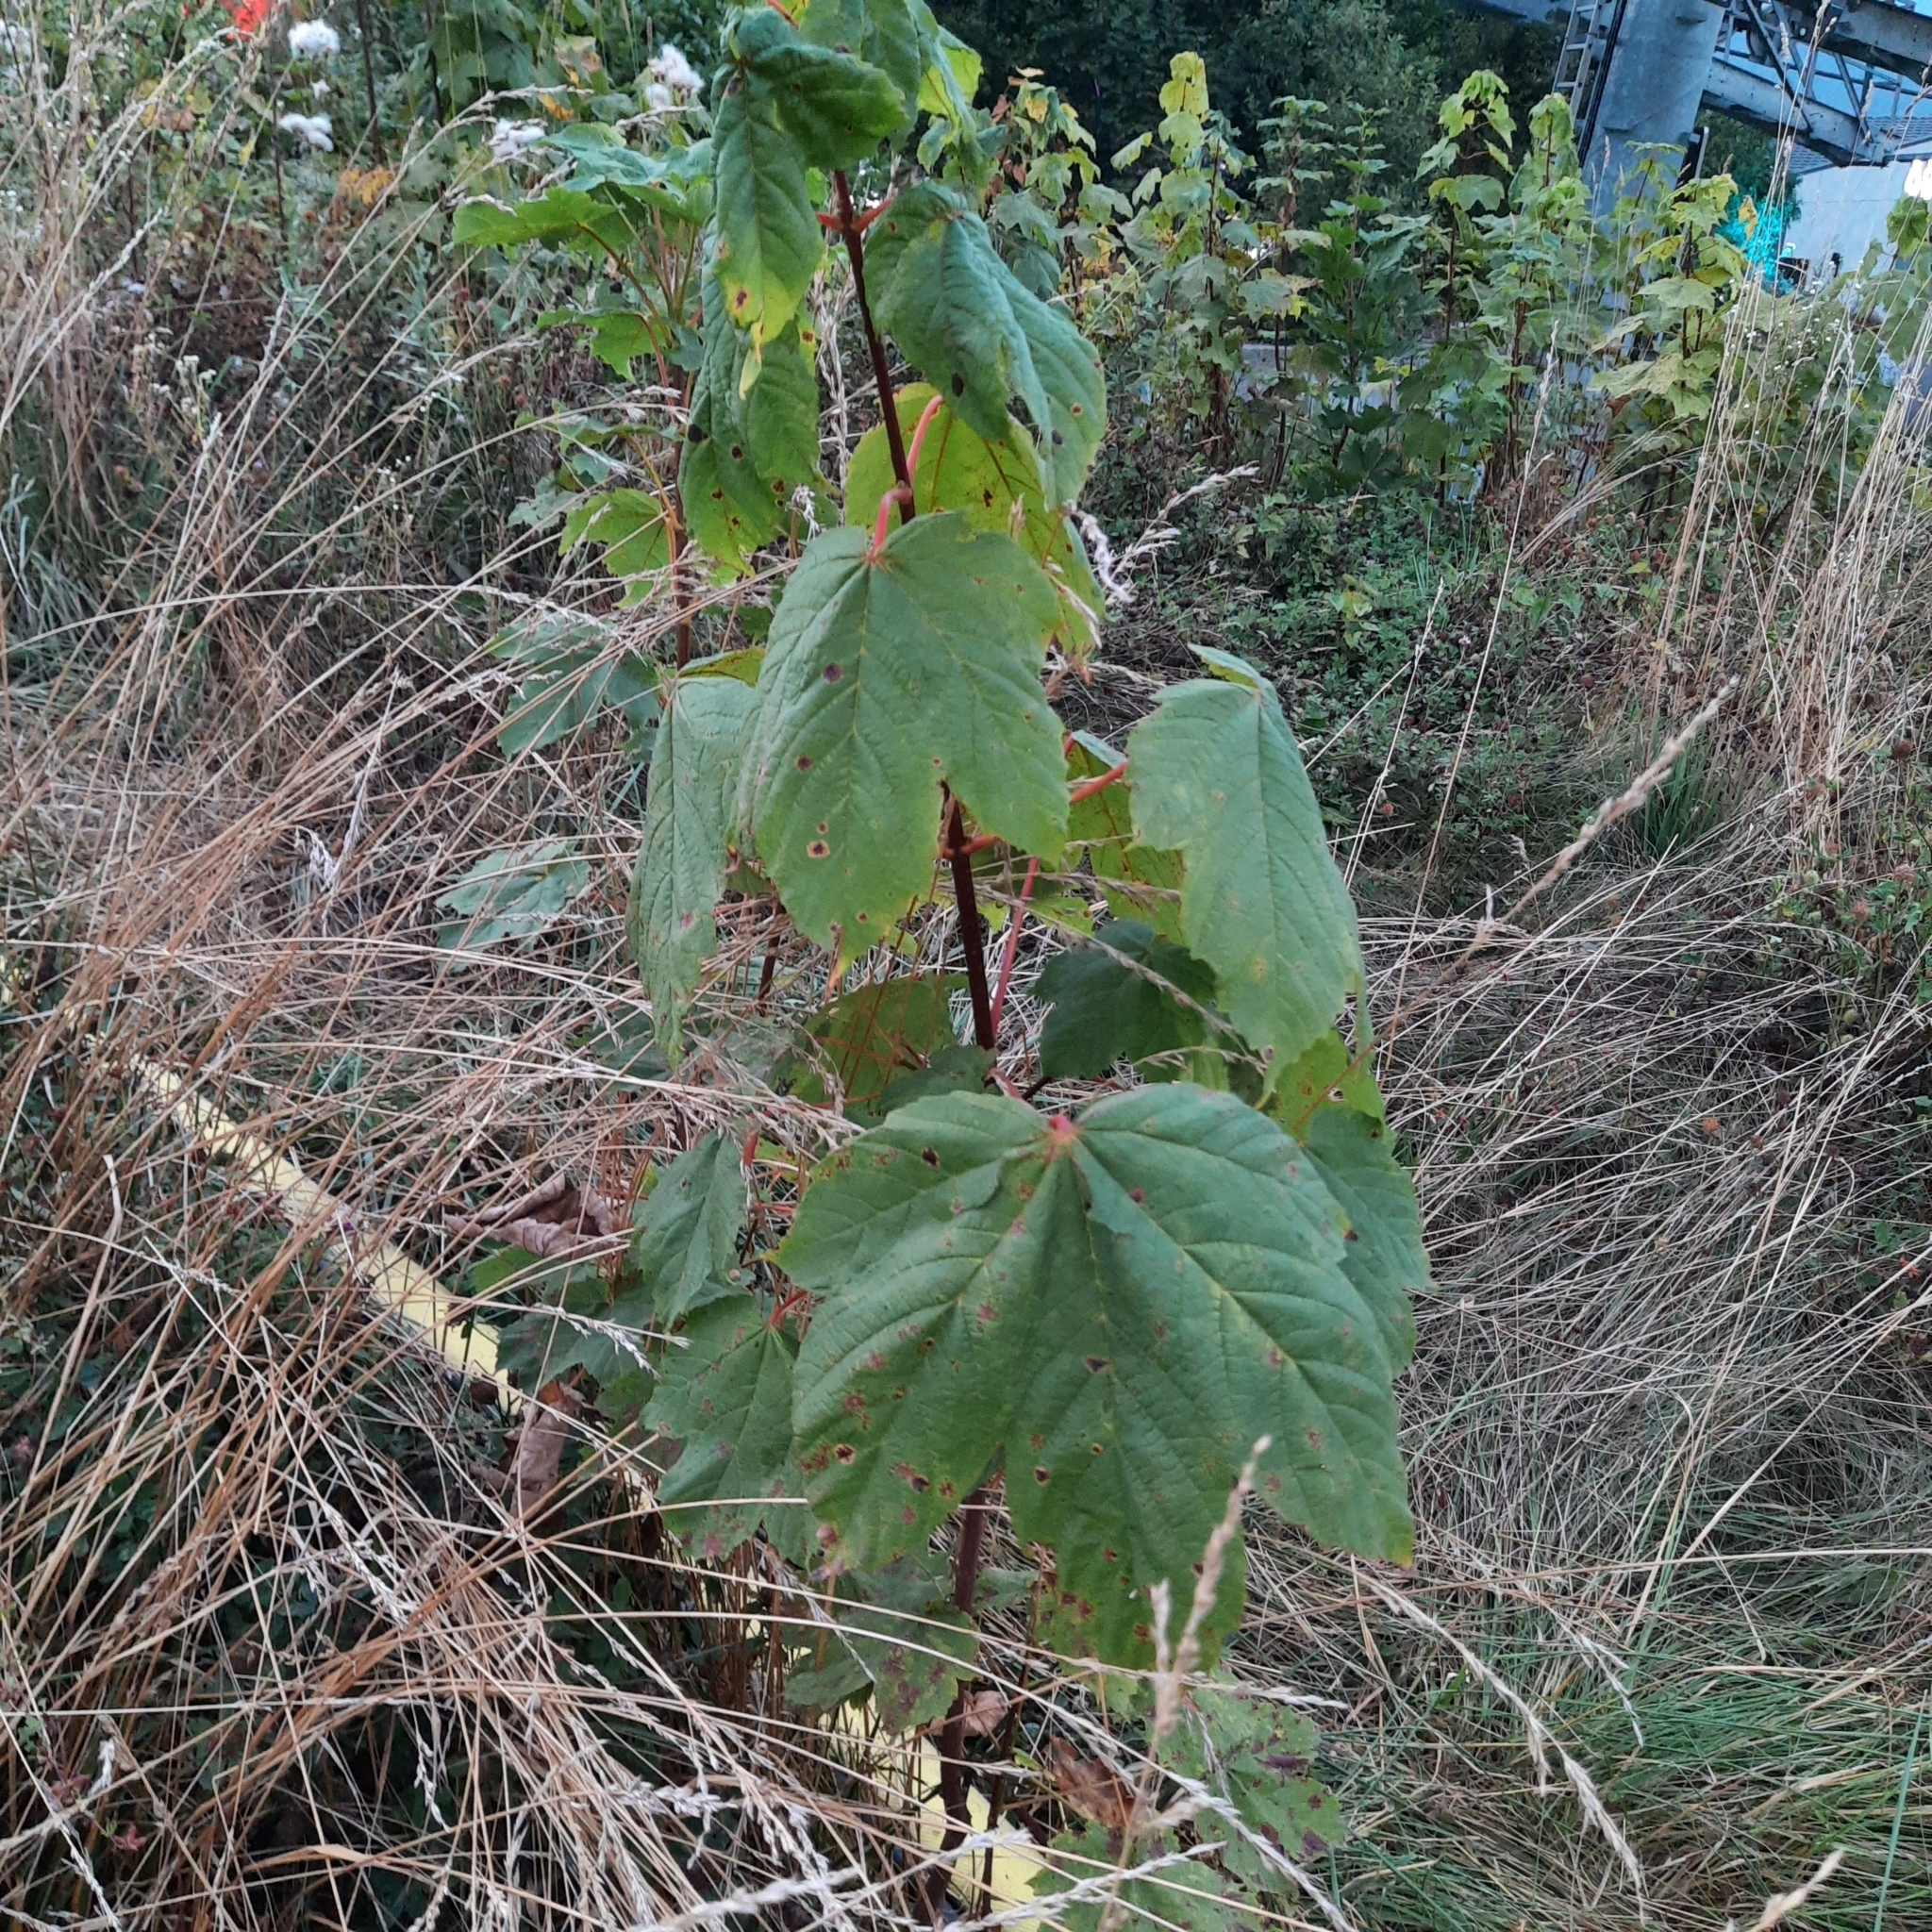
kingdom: Plantae
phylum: Tracheophyta
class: Magnoliopsida
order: Sapindales
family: Sapindaceae
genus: Acer
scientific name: Acer pseudoplatanus
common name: Sycamore
